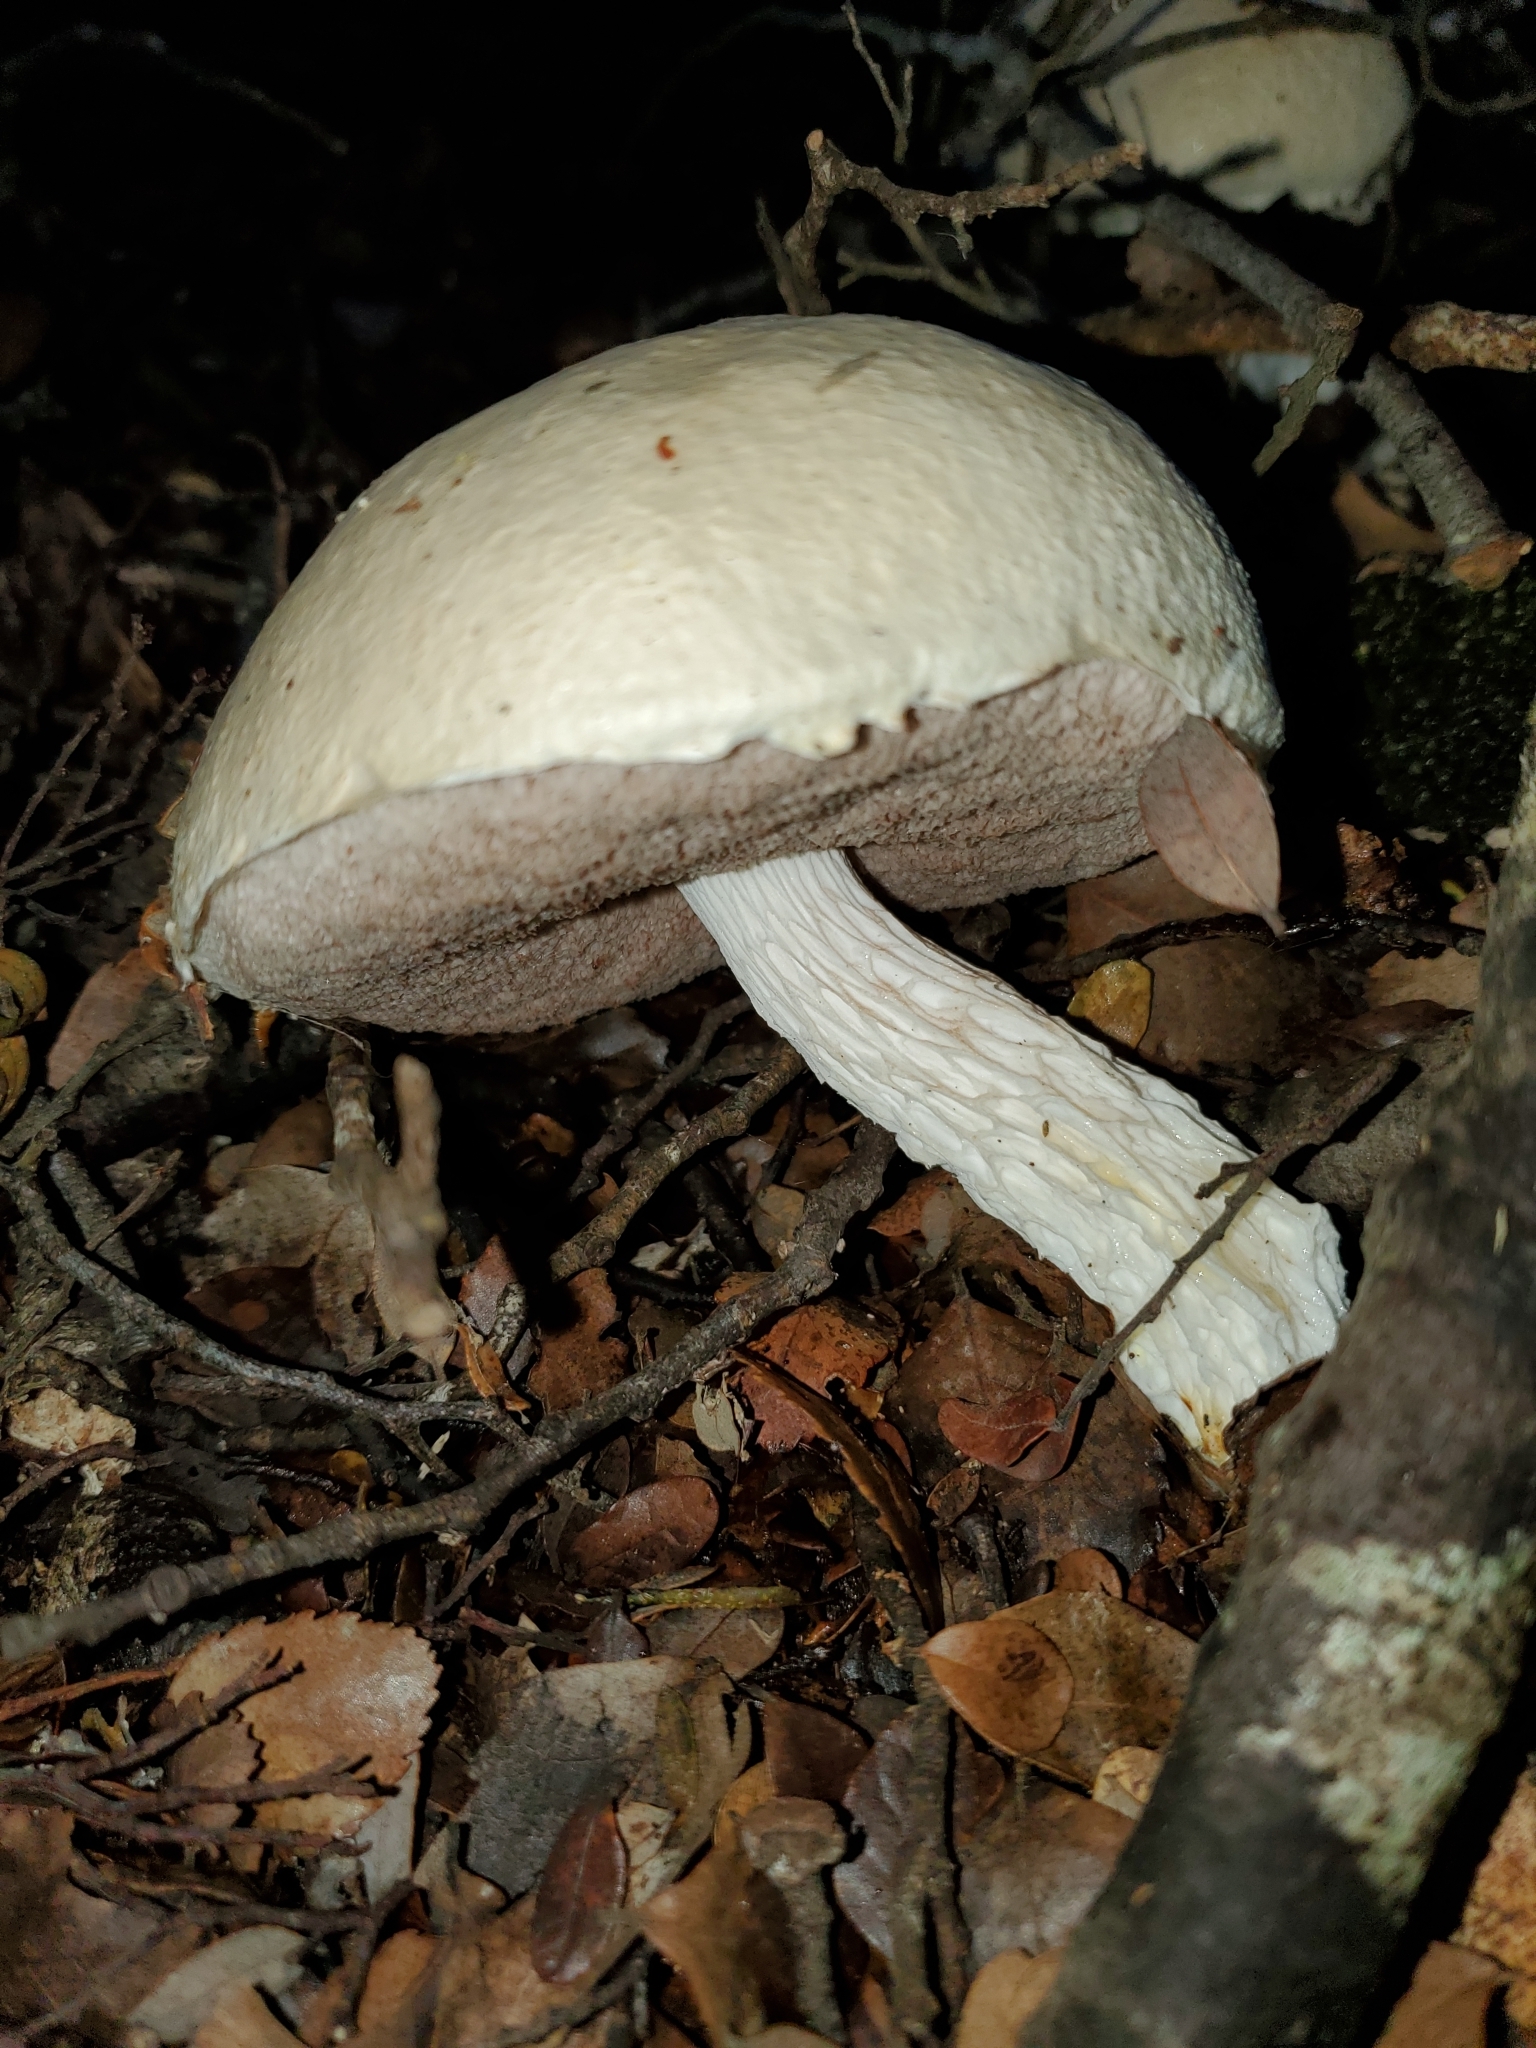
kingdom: Fungi
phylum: Basidiomycota
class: Agaricomycetes
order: Boletales
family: Boletaceae
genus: Fistulinella
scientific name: Fistulinella nivea
